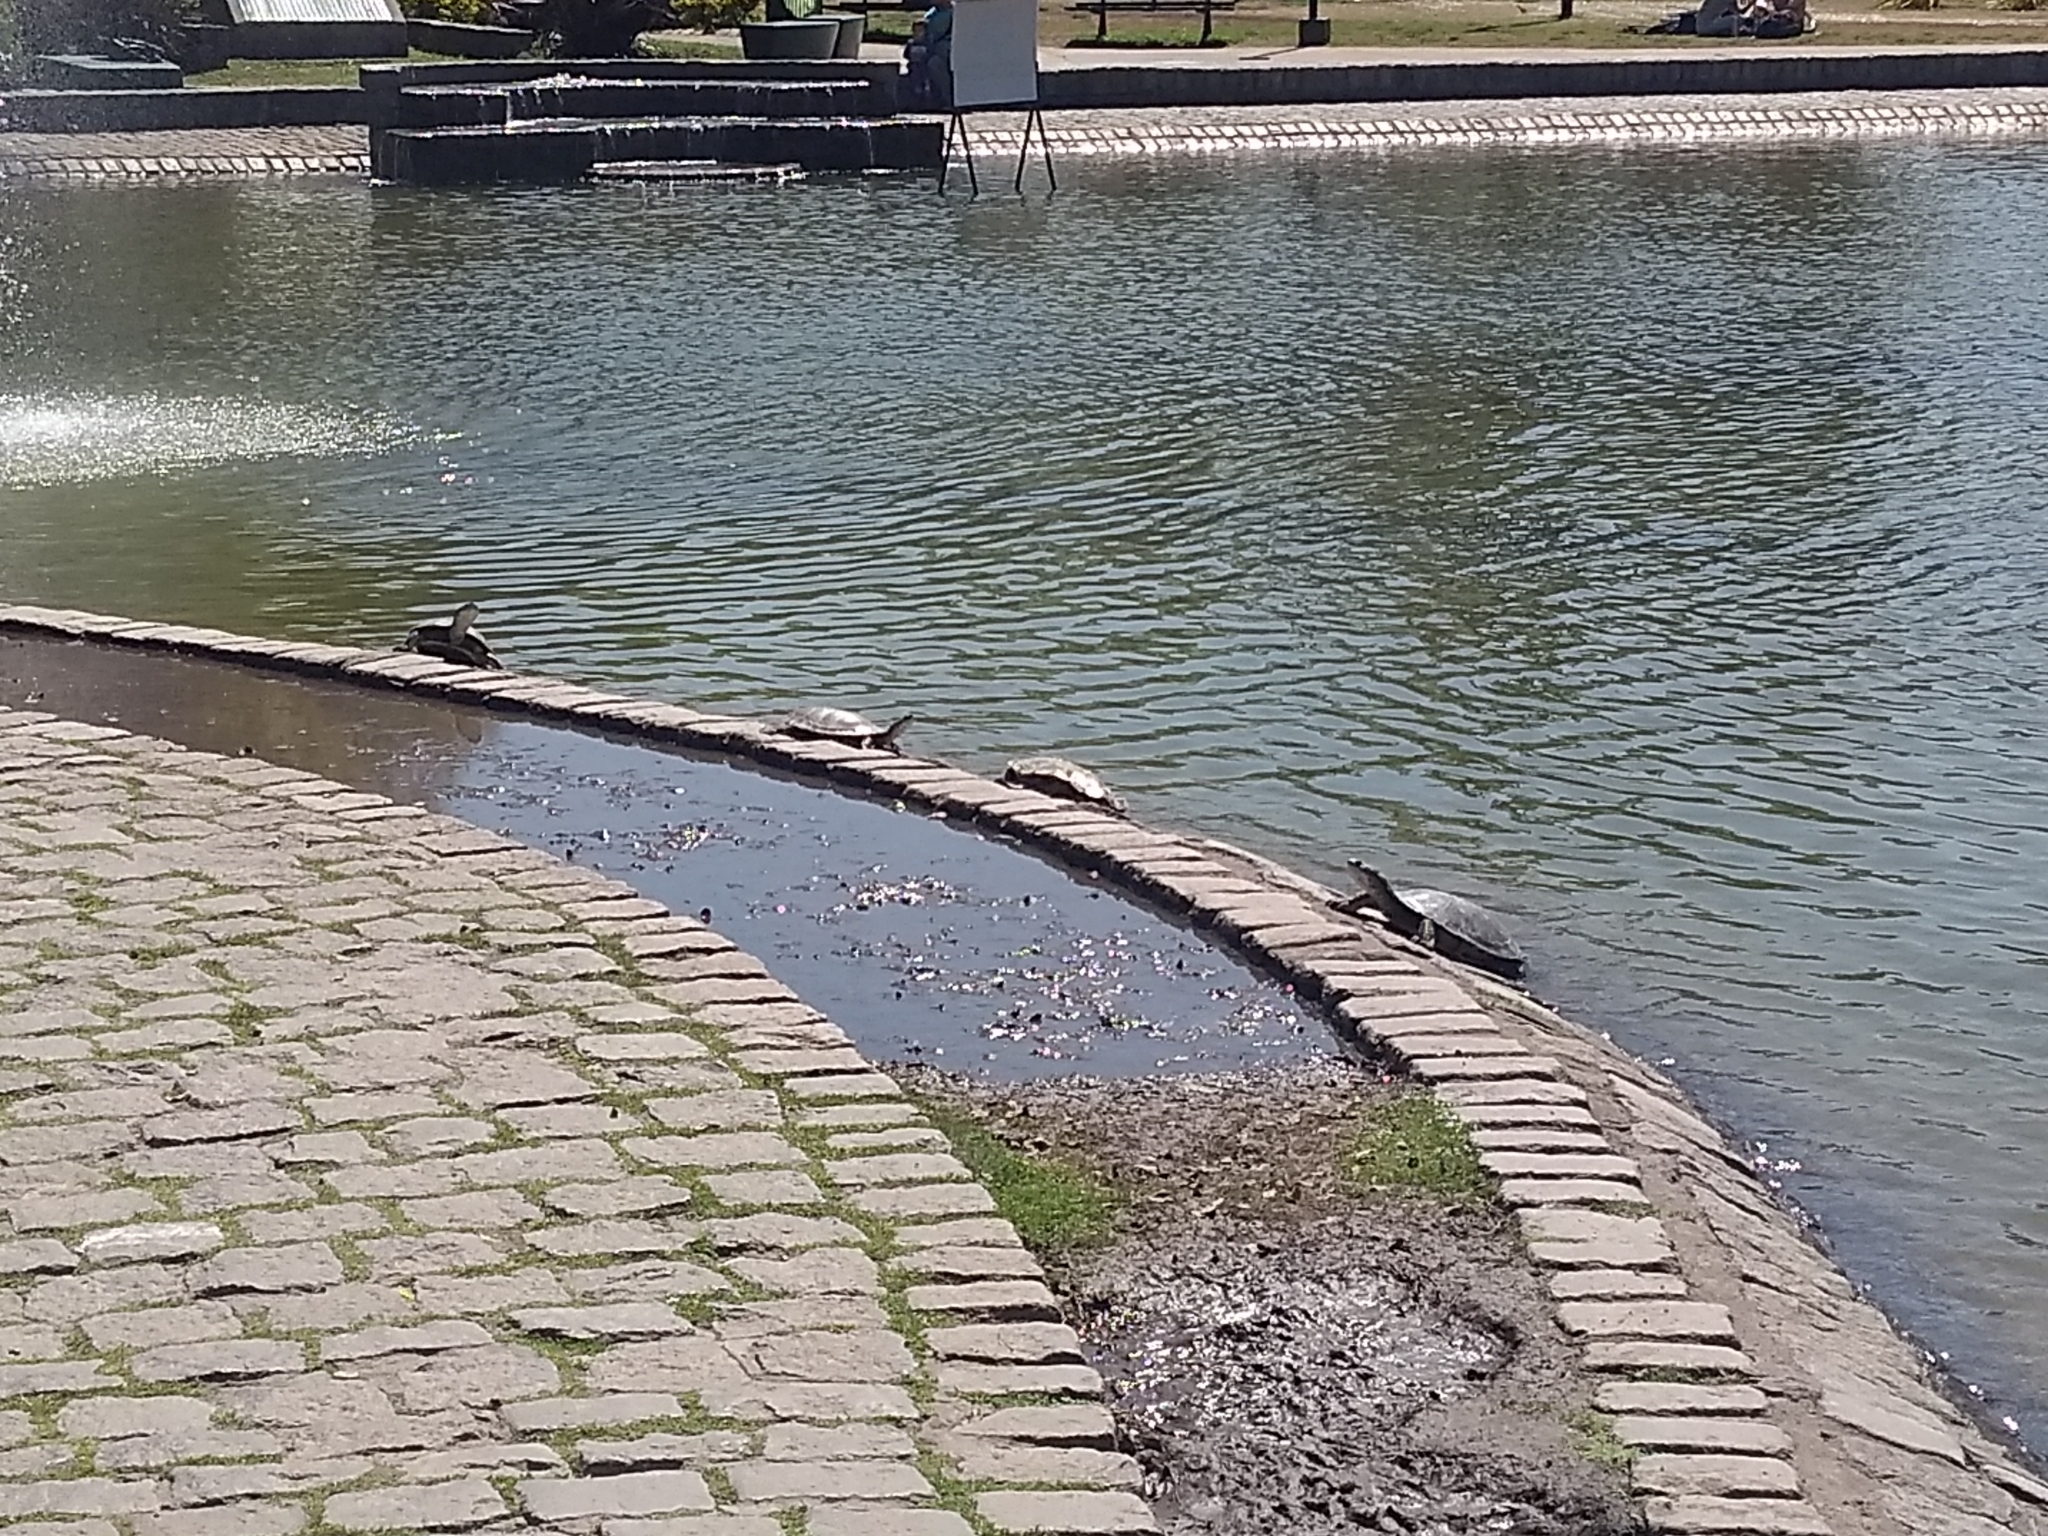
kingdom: Animalia
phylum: Chordata
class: Testudines
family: Chelidae
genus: Phrynops
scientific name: Phrynops hilarii
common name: Side-necked turtle of saint hillaire
